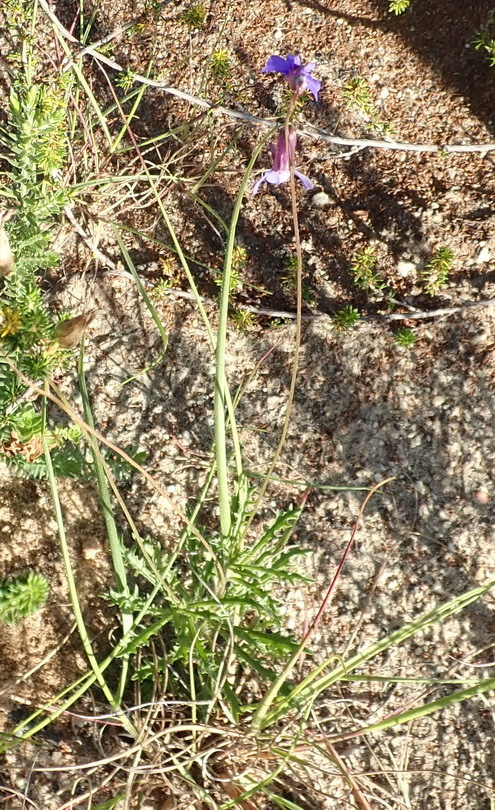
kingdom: Plantae
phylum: Tracheophyta
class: Magnoliopsida
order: Asterales
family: Campanulaceae
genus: Lobelia
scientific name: Lobelia tomentosa
